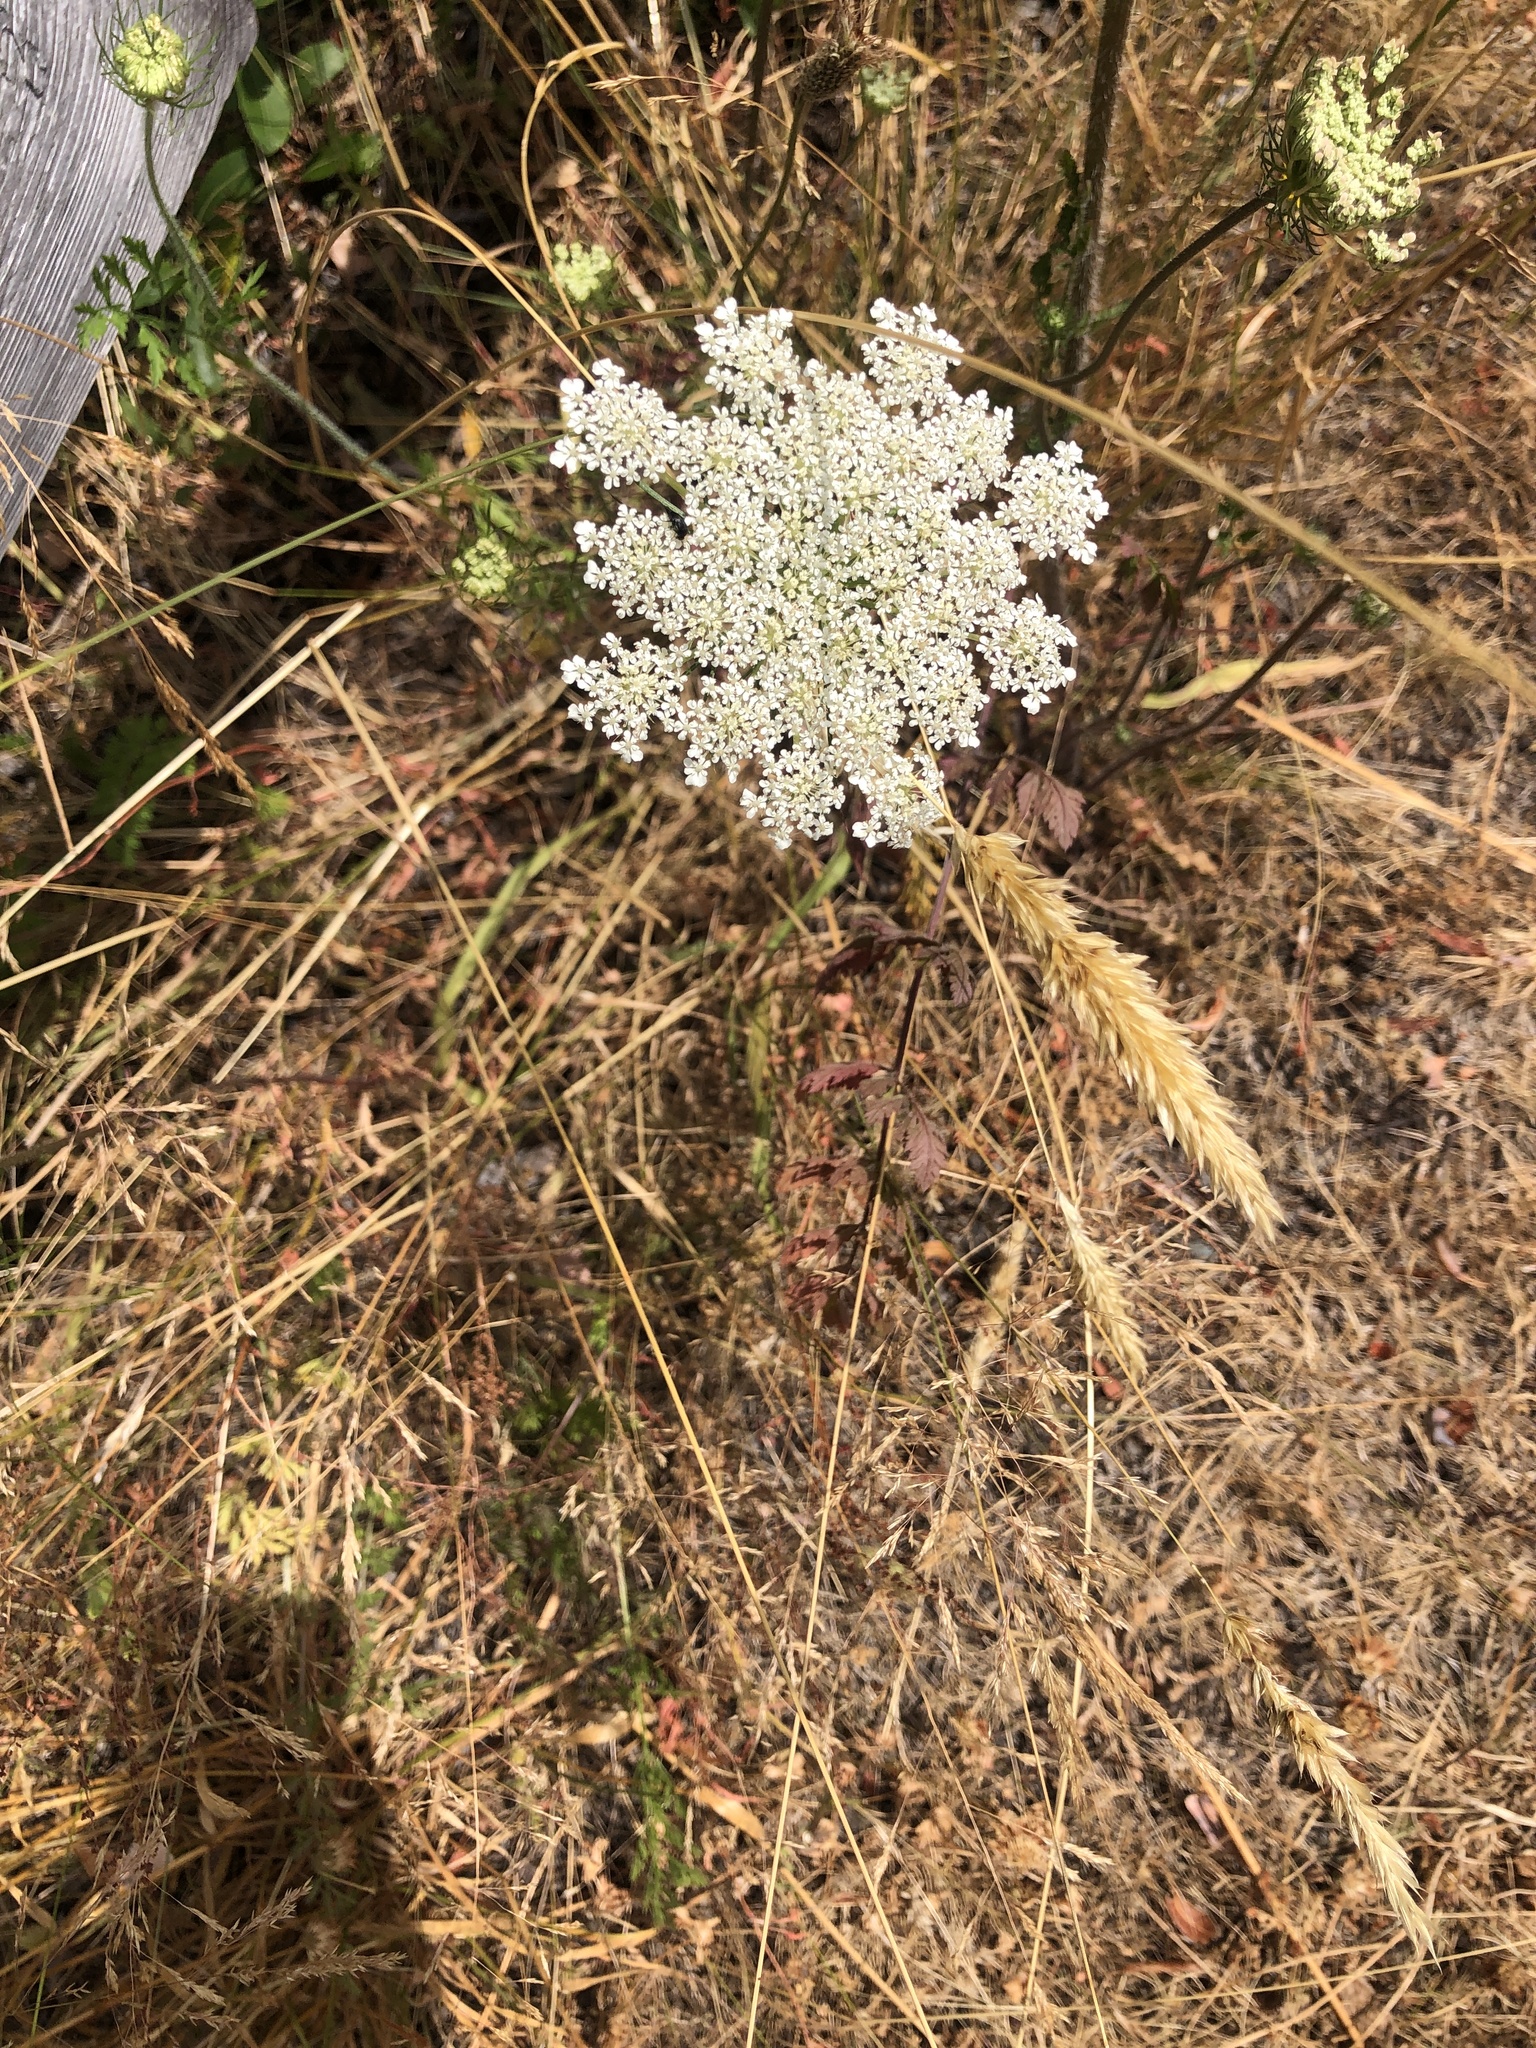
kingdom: Plantae
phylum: Tracheophyta
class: Magnoliopsida
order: Apiales
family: Apiaceae
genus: Daucus
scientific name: Daucus carota
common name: Wild carrot
